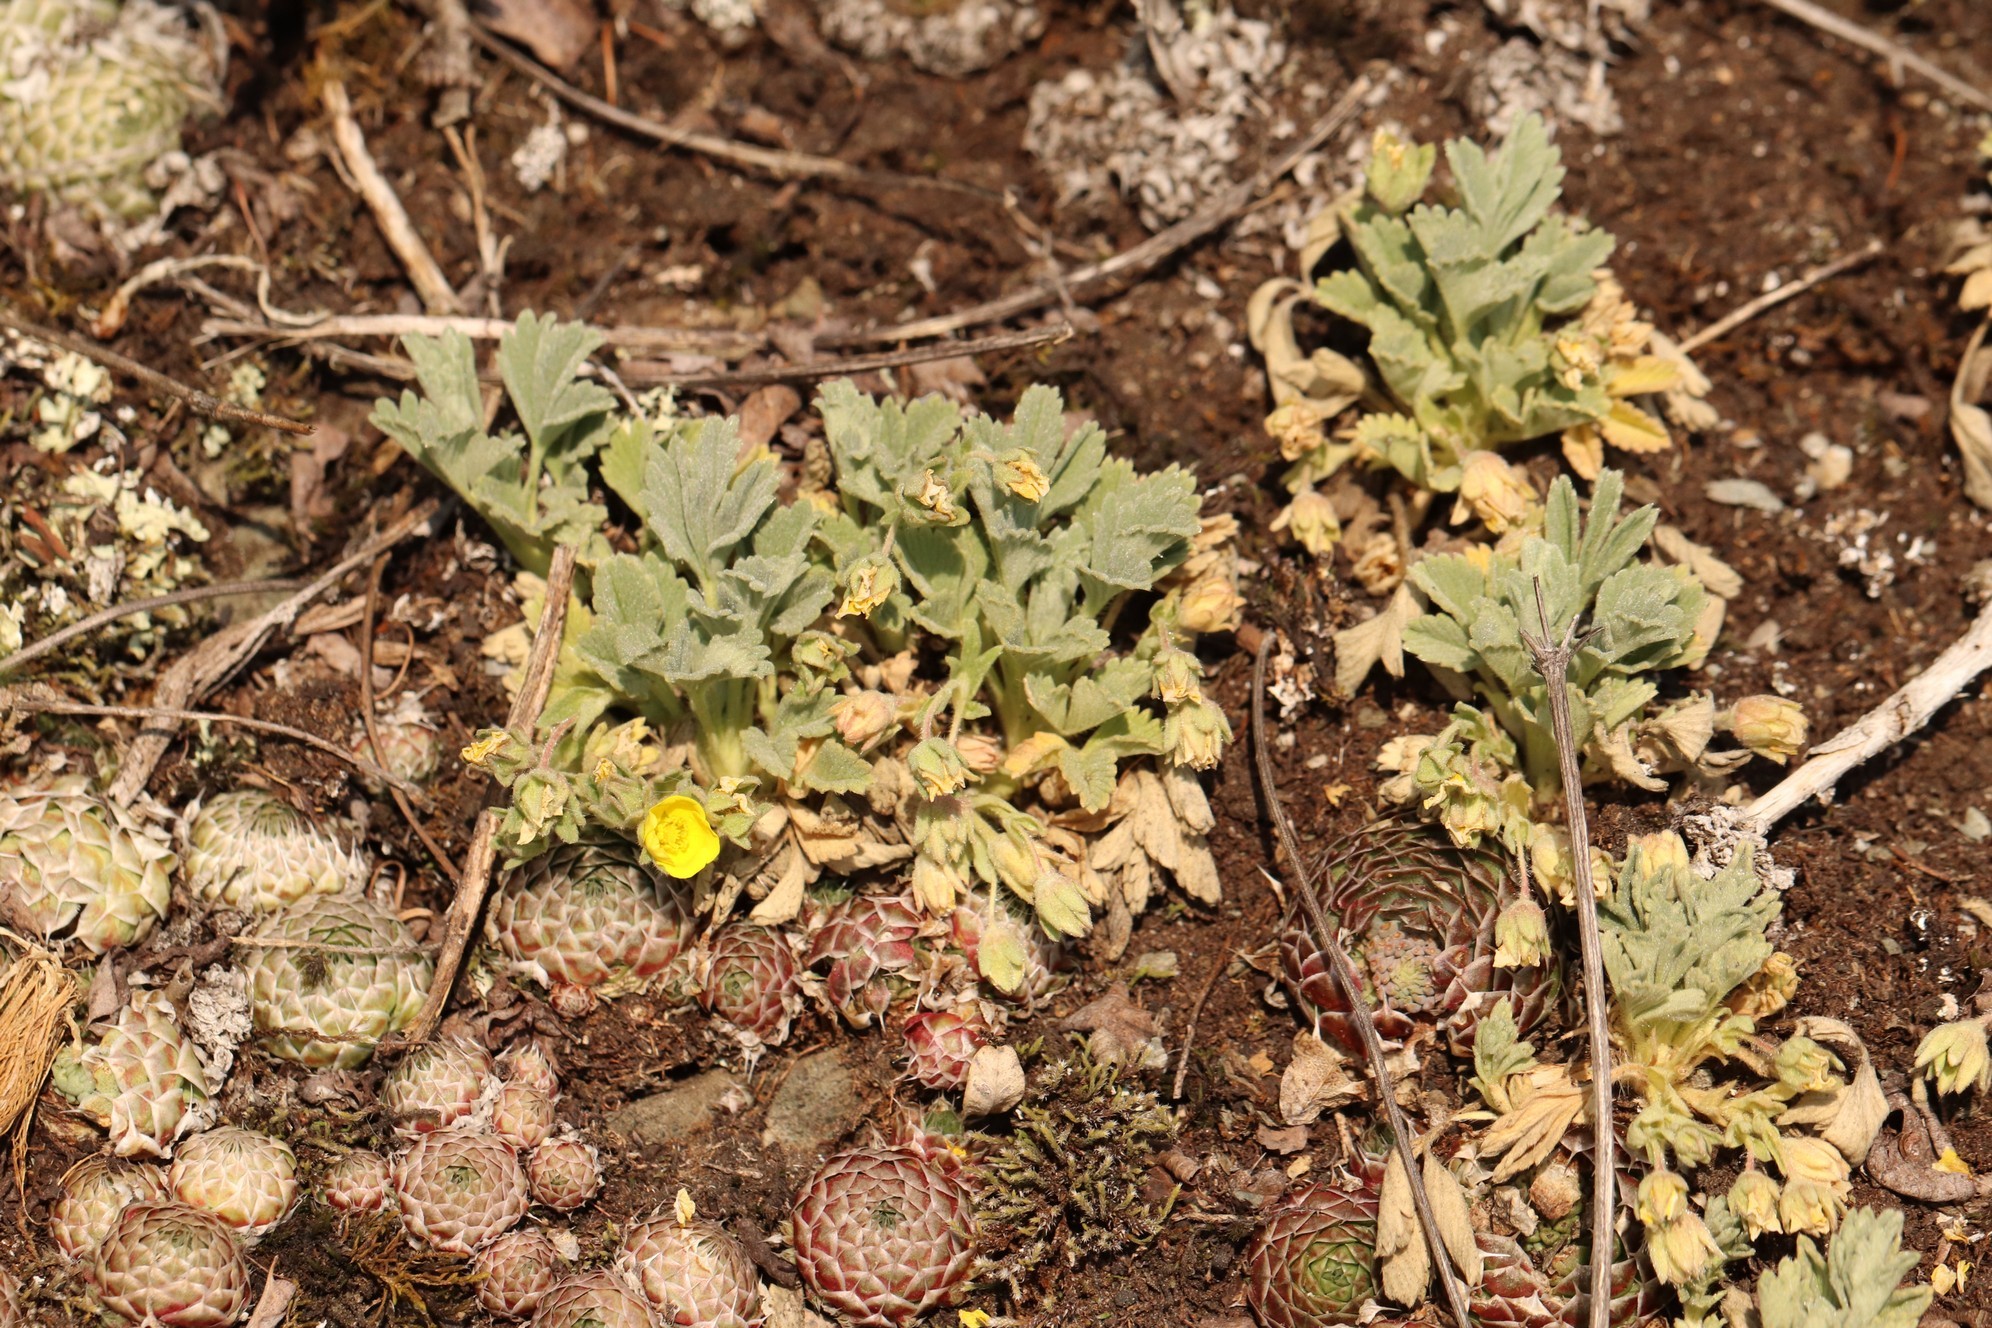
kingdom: Plantae
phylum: Tracheophyta
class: Magnoliopsida
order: Rosales
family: Rosaceae
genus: Potentilla
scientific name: Potentilla acaulis
